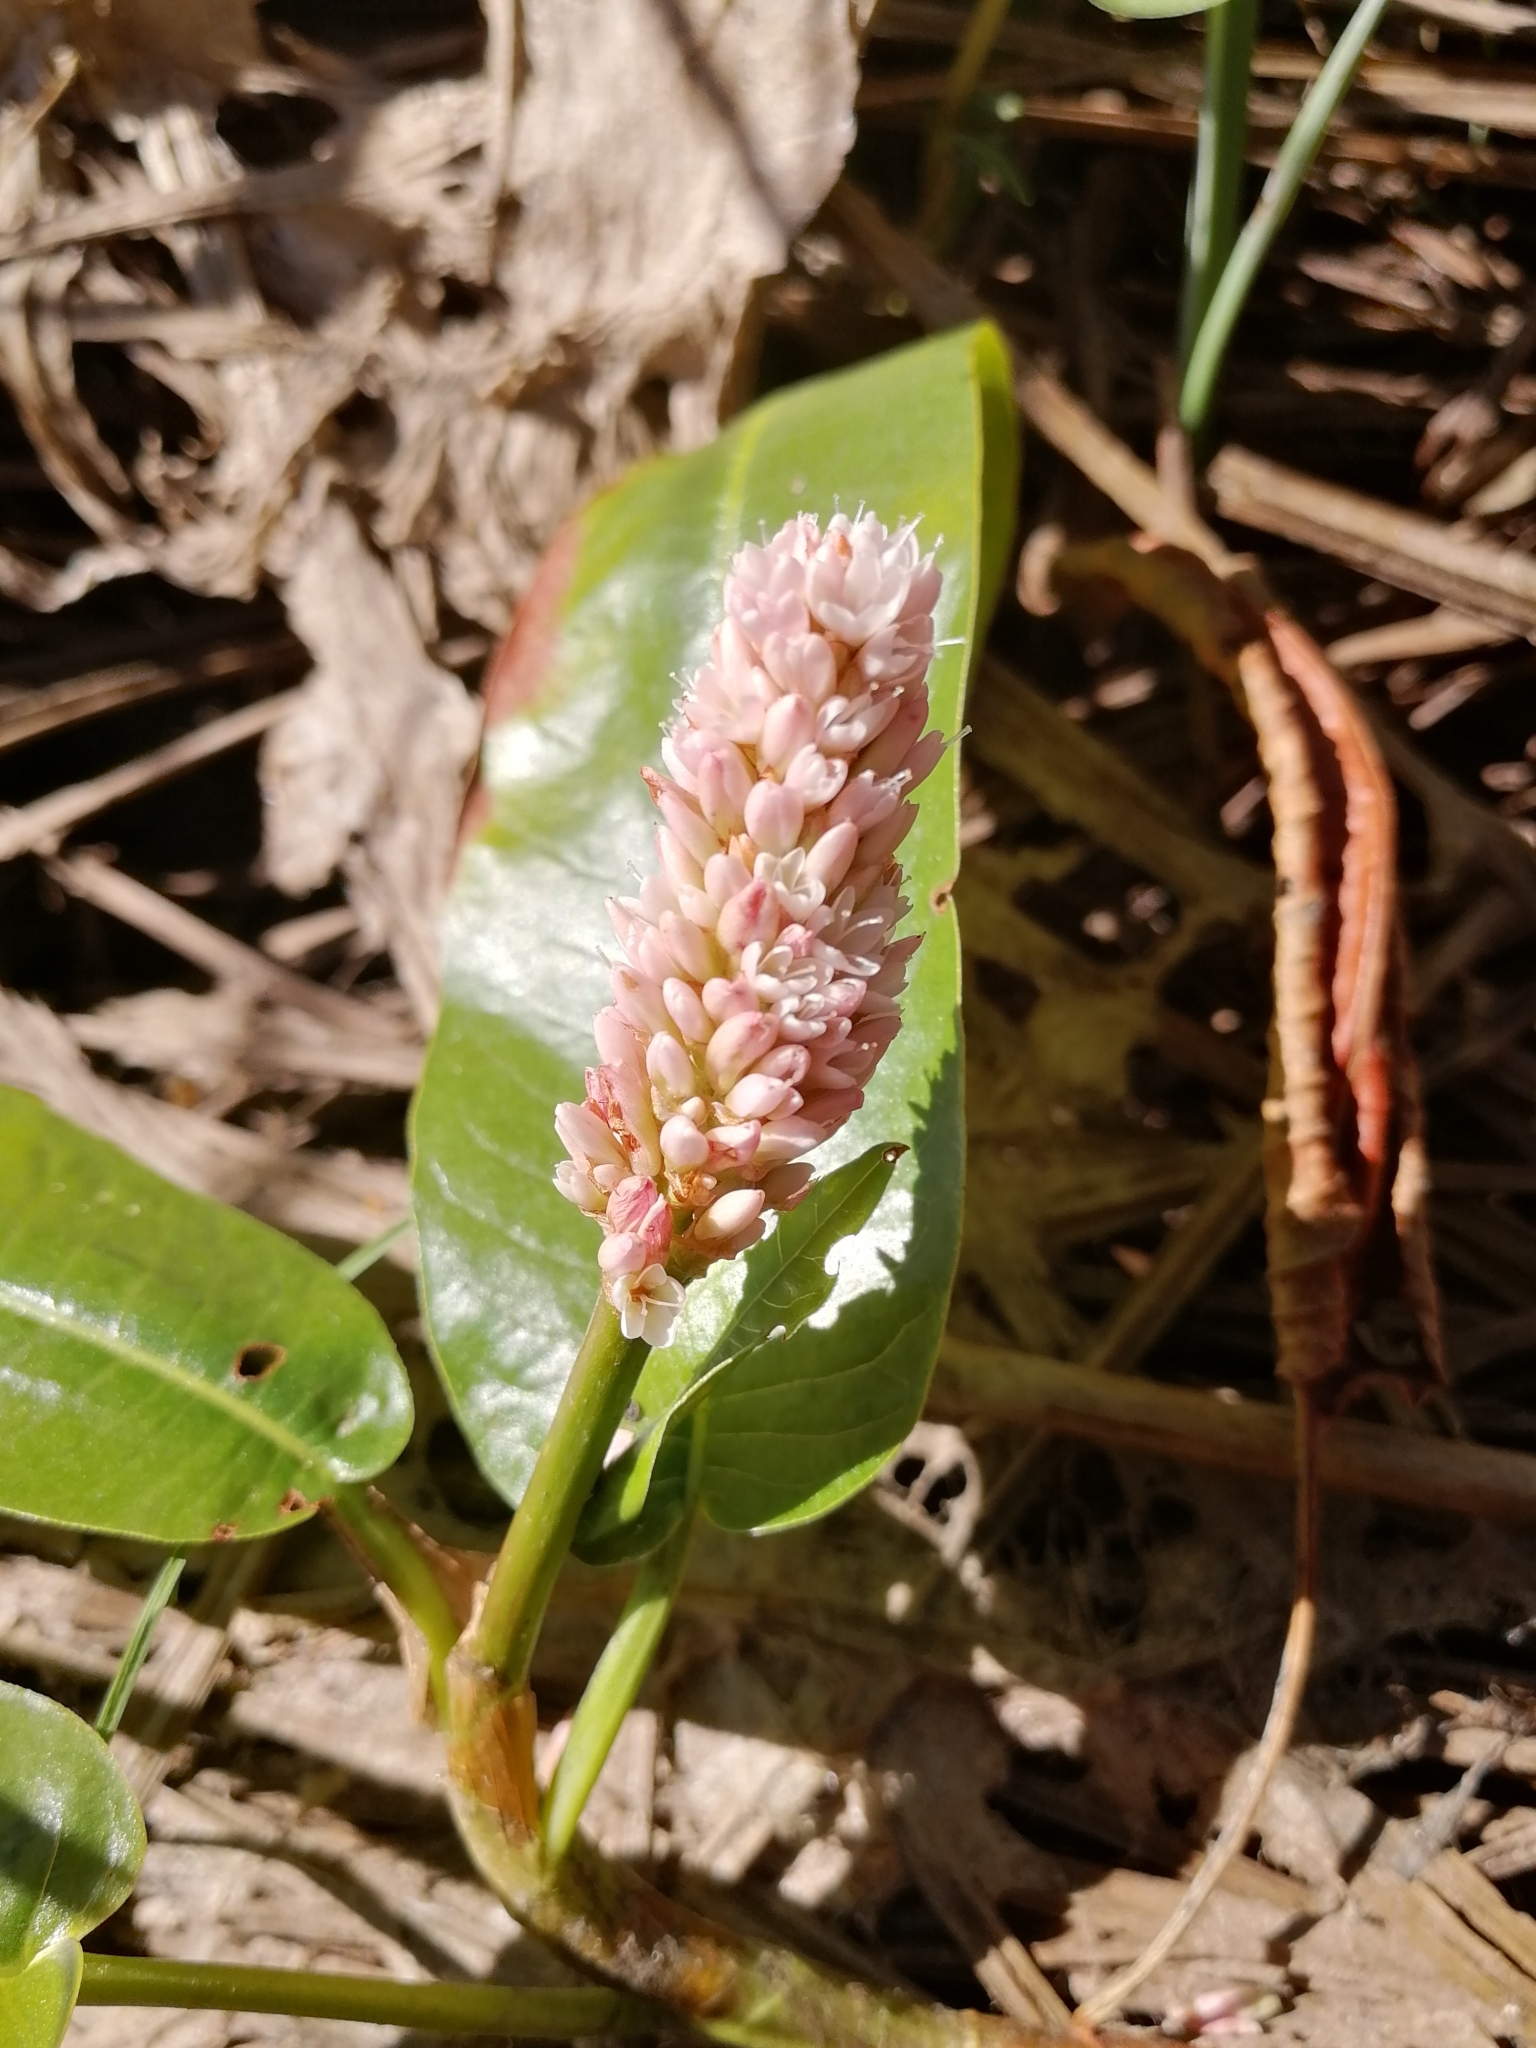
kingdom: Plantae
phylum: Tracheophyta
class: Magnoliopsida
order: Caryophyllales
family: Polygonaceae
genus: Persicaria
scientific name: Persicaria amphibia
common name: Amphibious bistort
